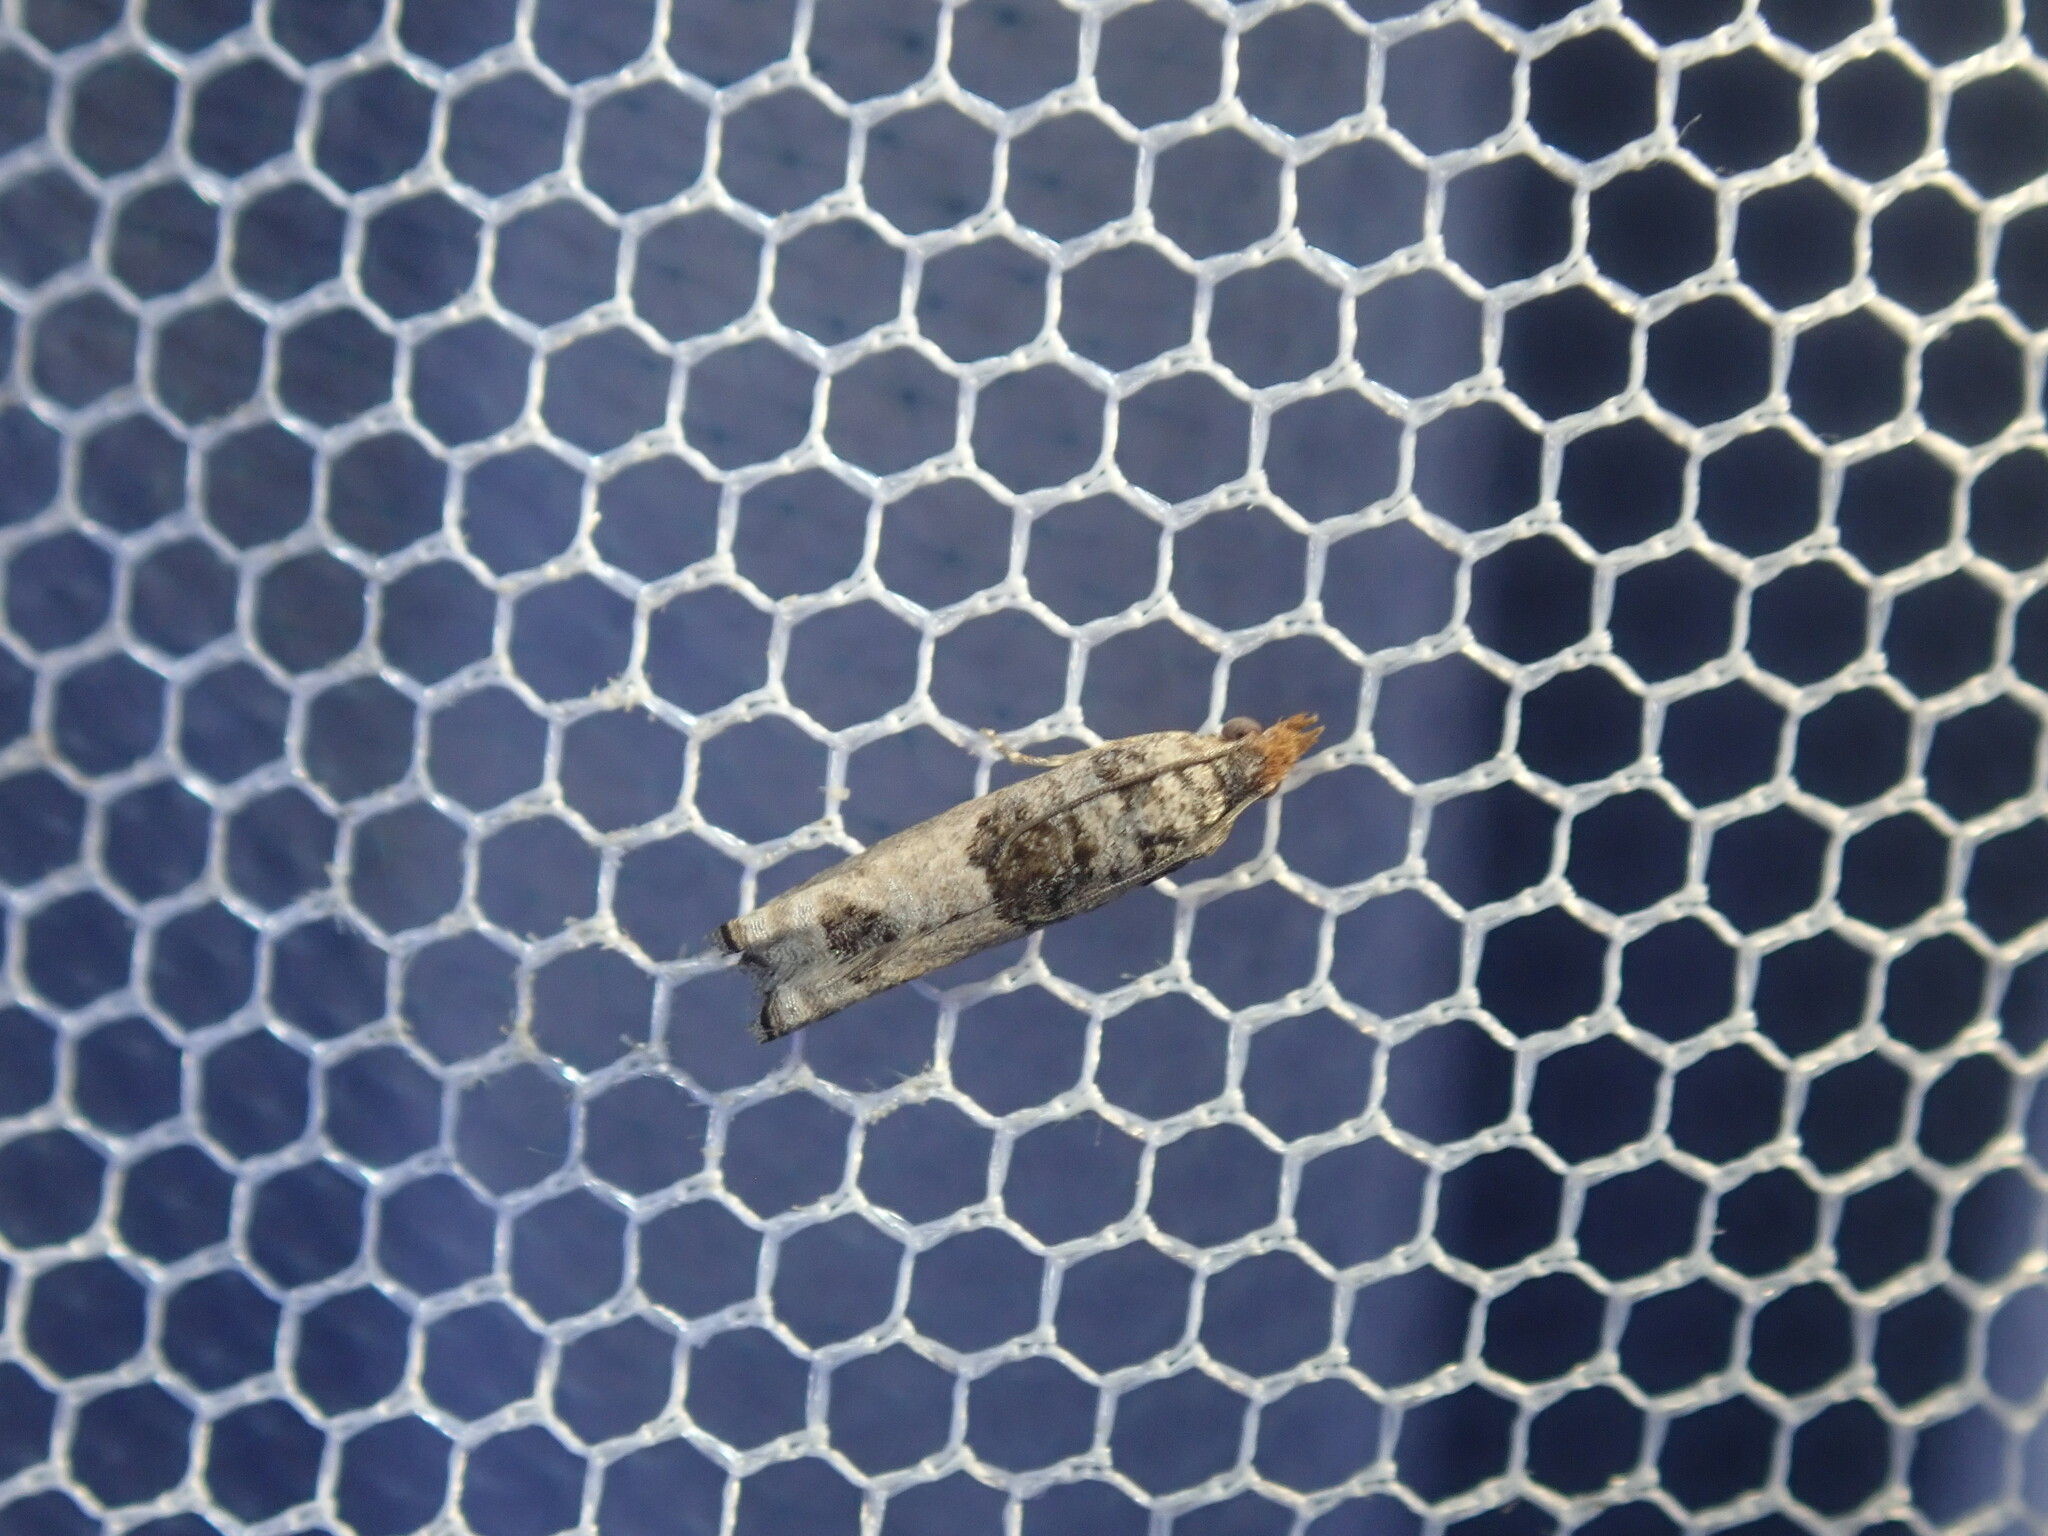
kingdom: Animalia
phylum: Arthropoda
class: Insecta
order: Lepidoptera
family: Tortricidae
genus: Spilonota
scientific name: Spilonota constrictana
